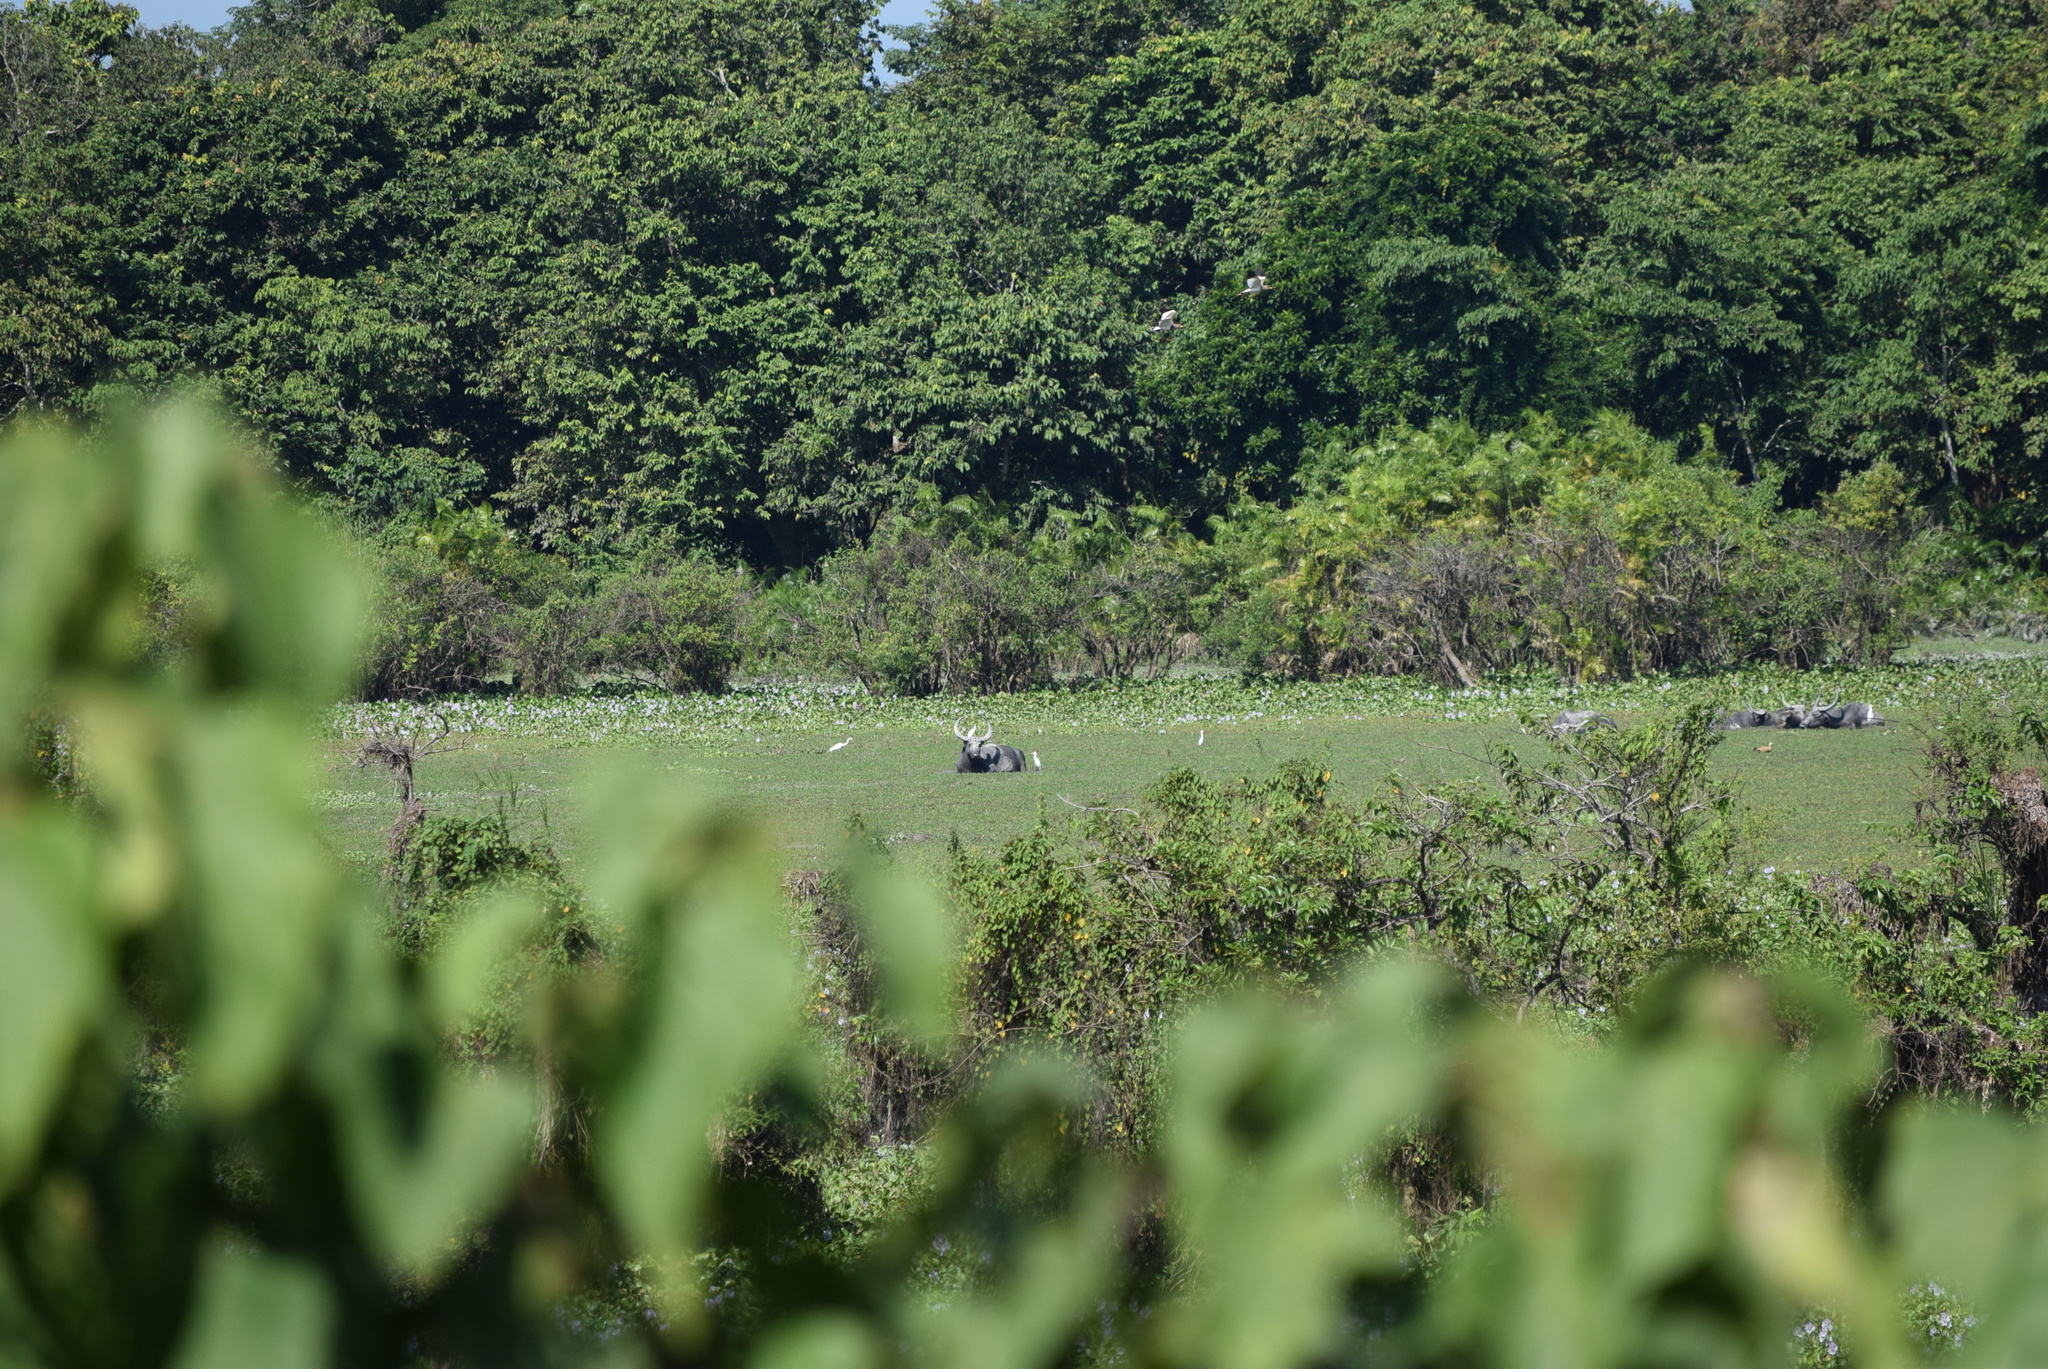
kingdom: Animalia
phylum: Chordata
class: Mammalia
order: Artiodactyla
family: Bovidae
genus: Bubalus
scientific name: Bubalus bubalis
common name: Water buffalo
